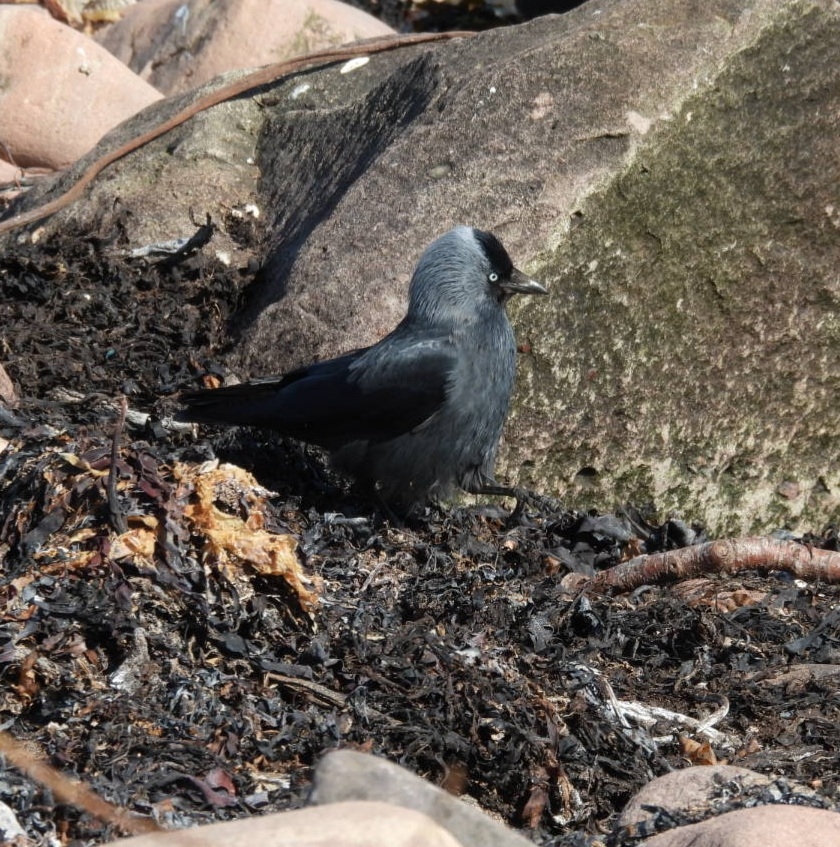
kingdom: Animalia
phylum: Chordata
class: Aves
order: Passeriformes
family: Corvidae
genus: Coloeus
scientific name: Coloeus monedula
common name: Western jackdaw
